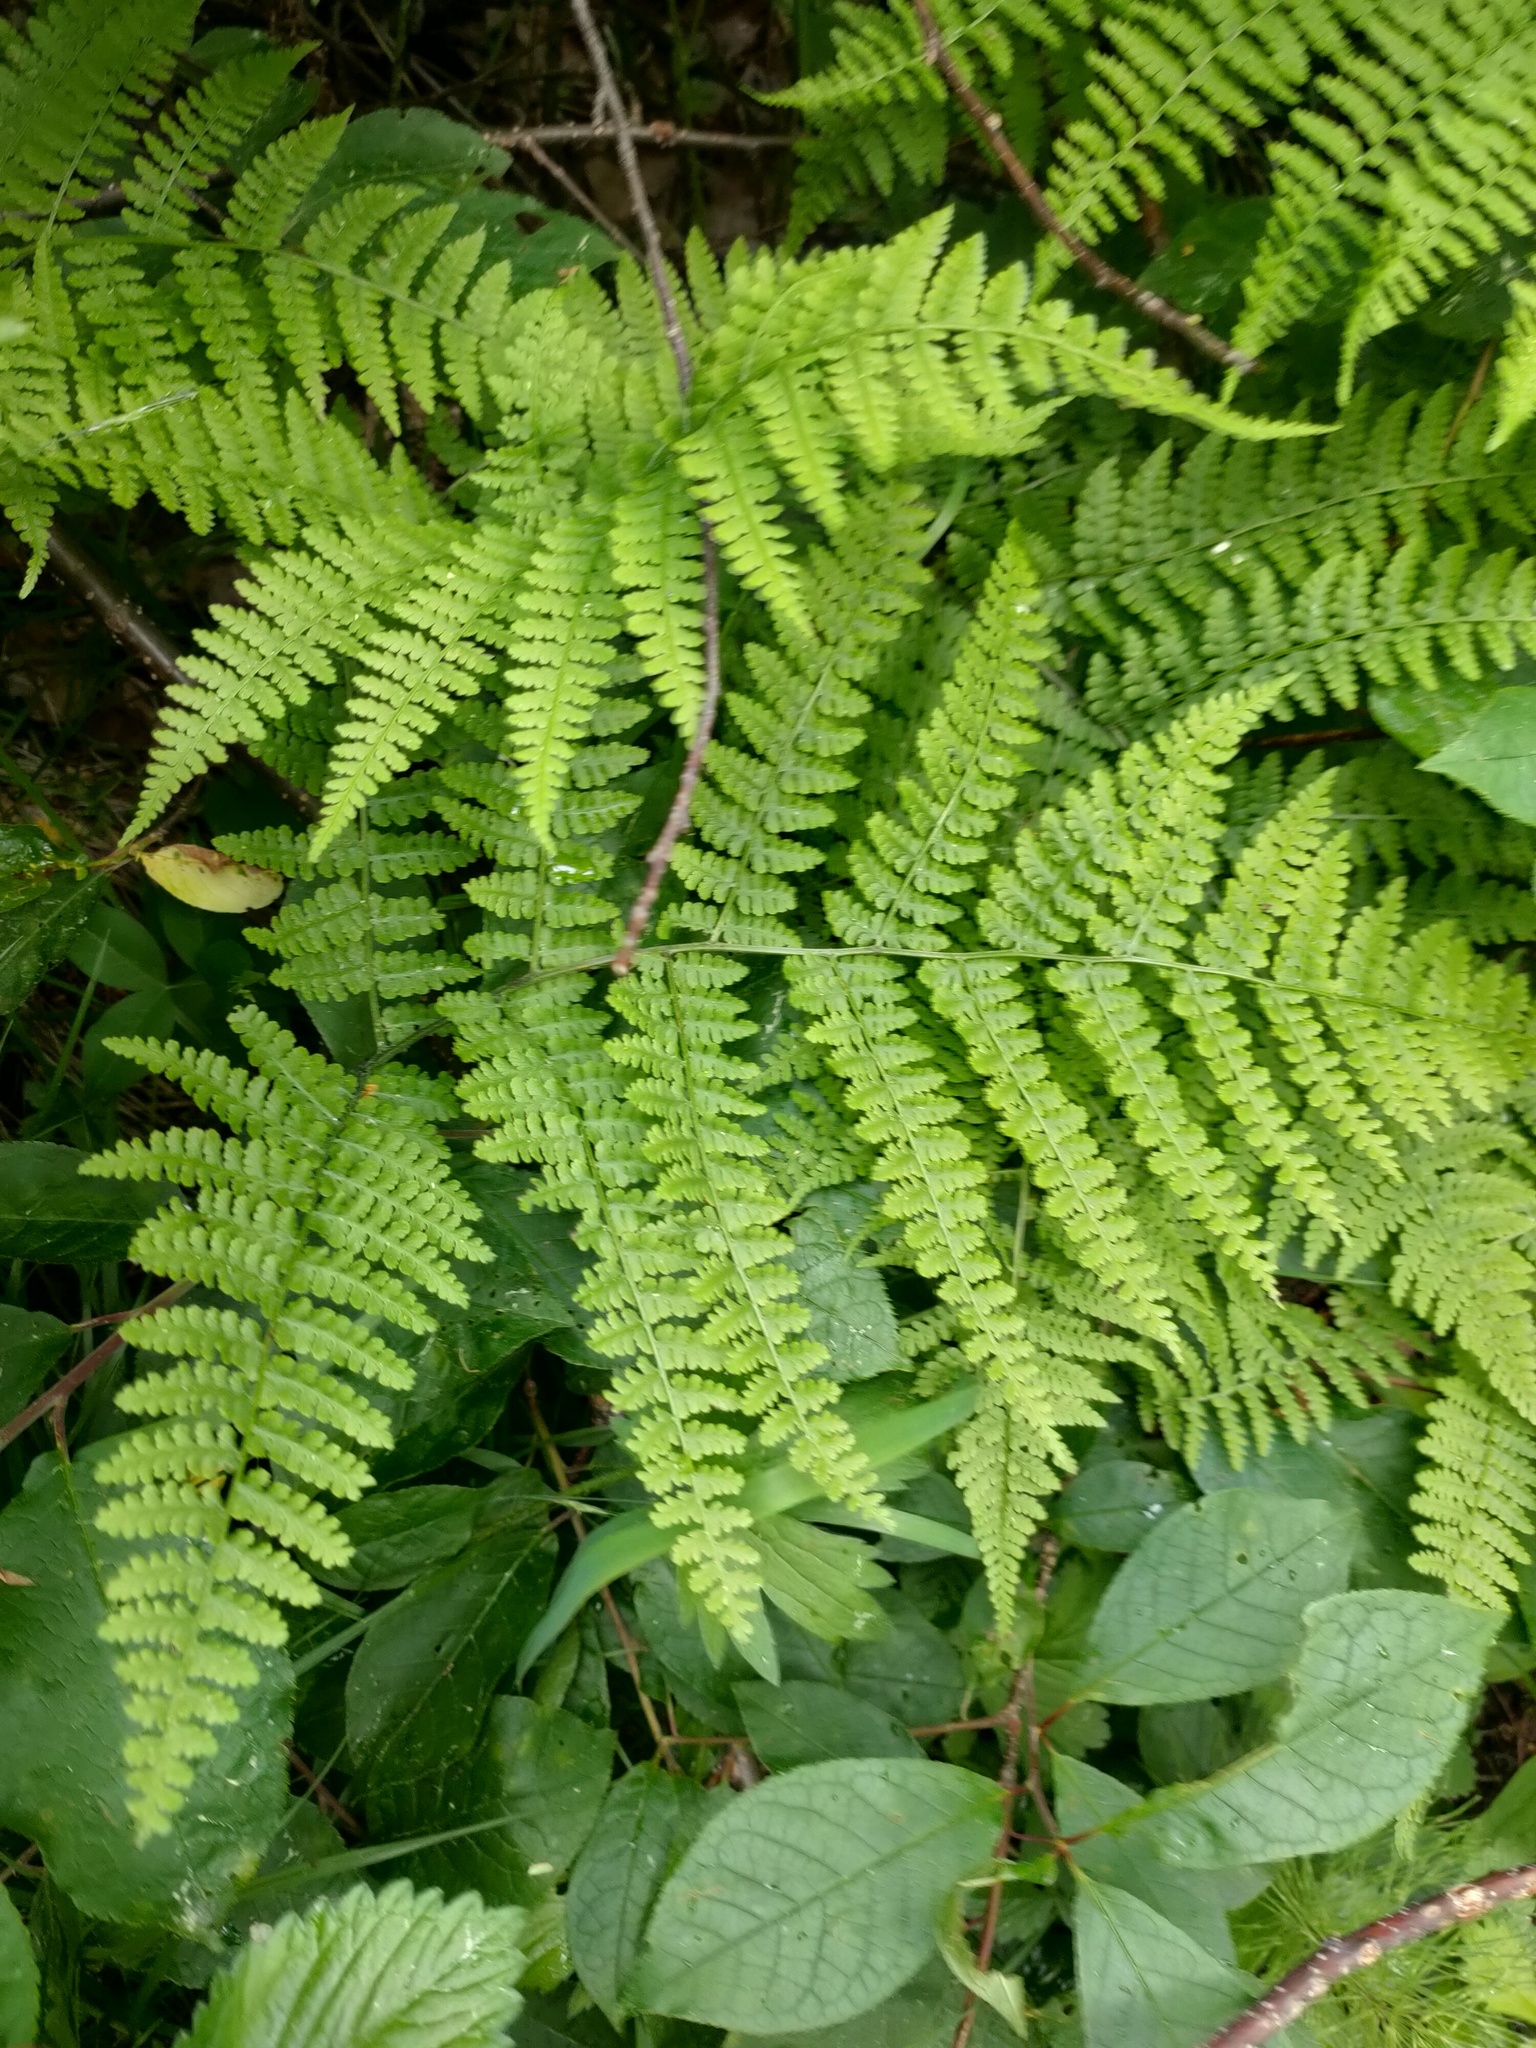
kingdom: Plantae
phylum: Tracheophyta
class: Polypodiopsida
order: Polypodiales
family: Athyriaceae
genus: Diplazium
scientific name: Diplazium sibiricum
